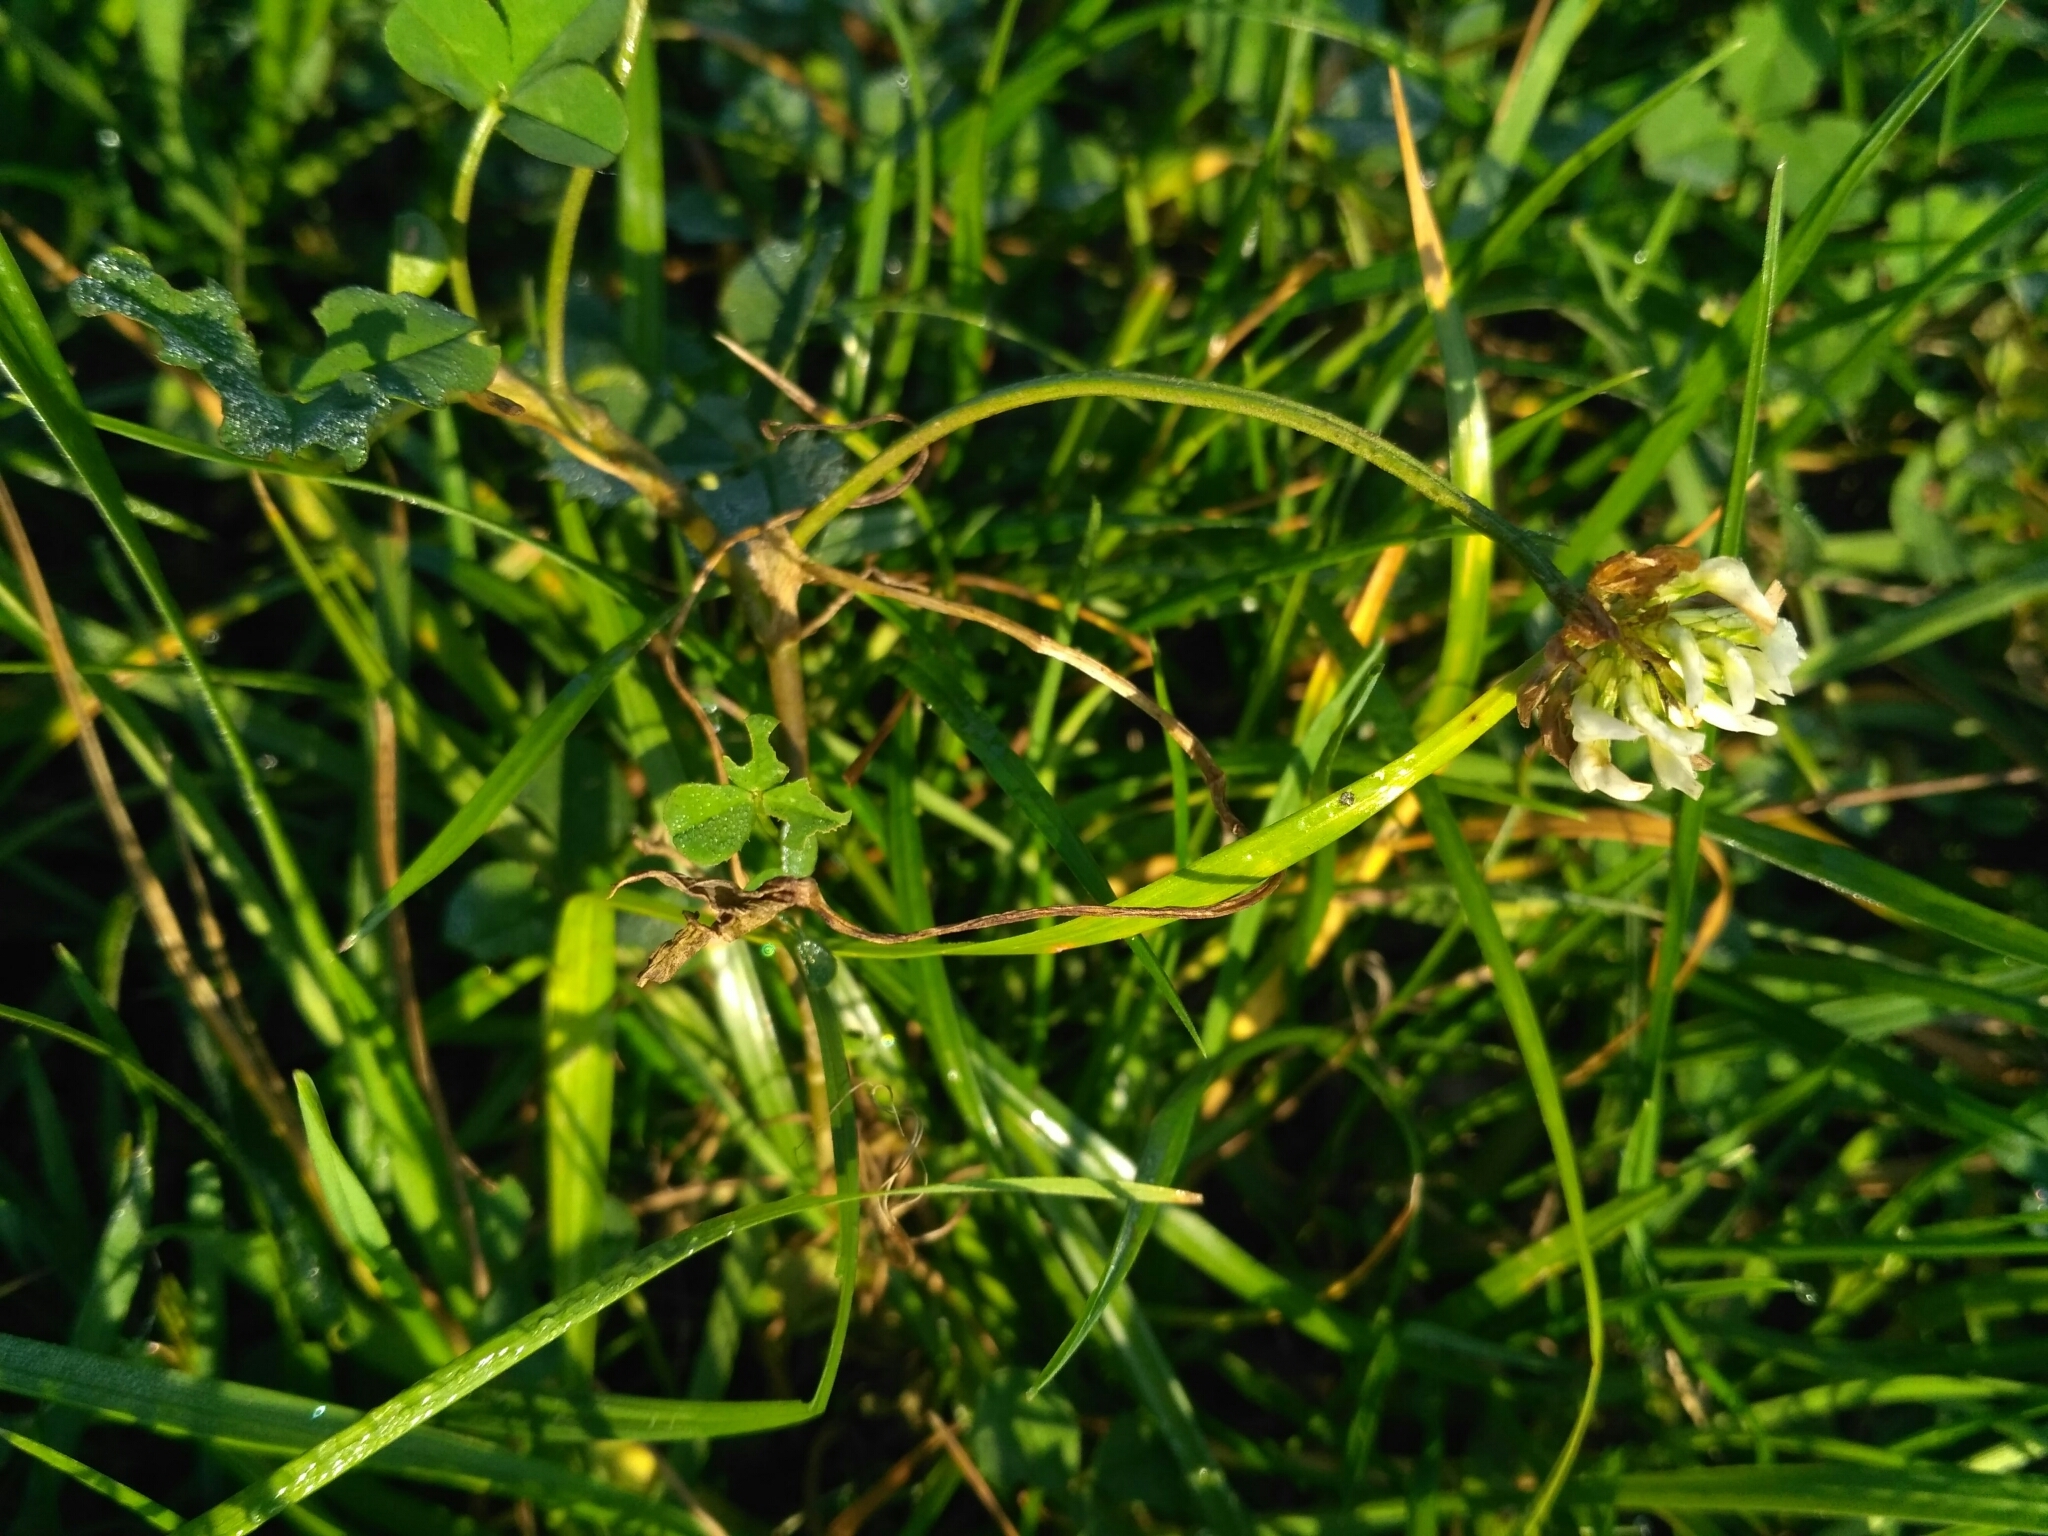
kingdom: Plantae
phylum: Tracheophyta
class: Magnoliopsida
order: Fabales
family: Fabaceae
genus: Trifolium
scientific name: Trifolium repens
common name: White clover
